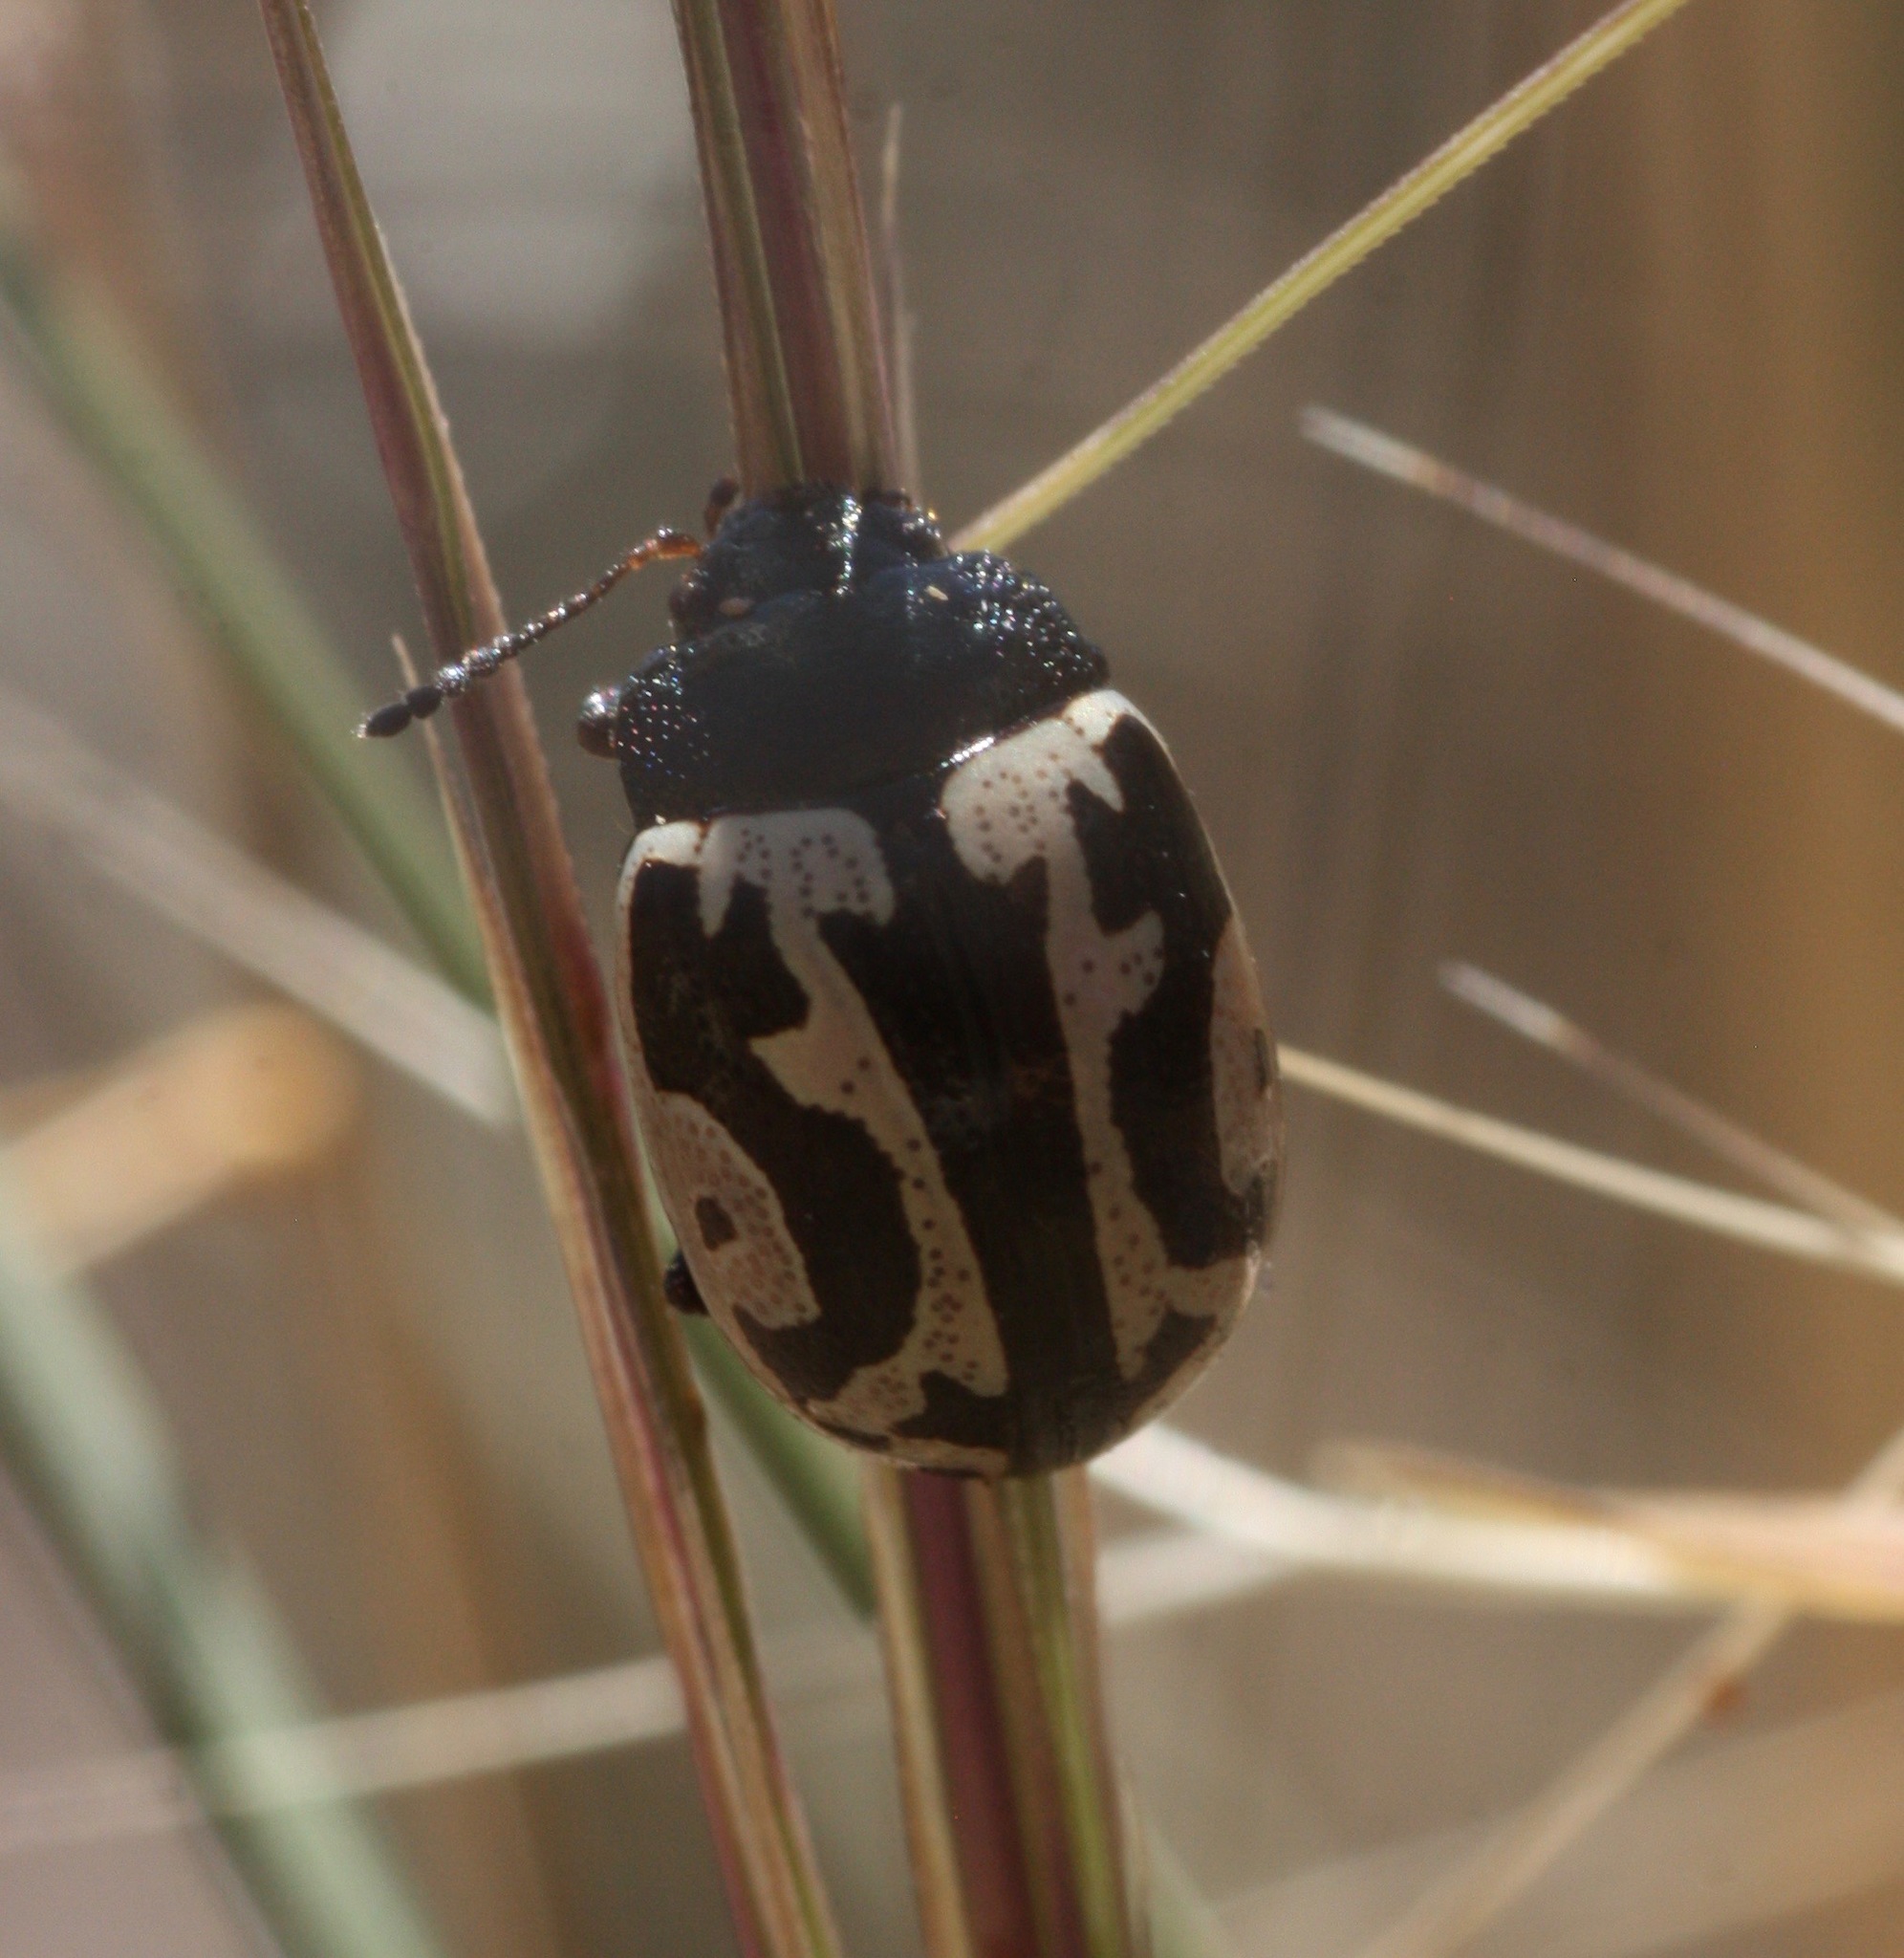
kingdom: Animalia
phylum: Arthropoda
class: Insecta
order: Coleoptera
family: Chrysomelidae
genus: Calligrapha
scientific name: Calligrapha
